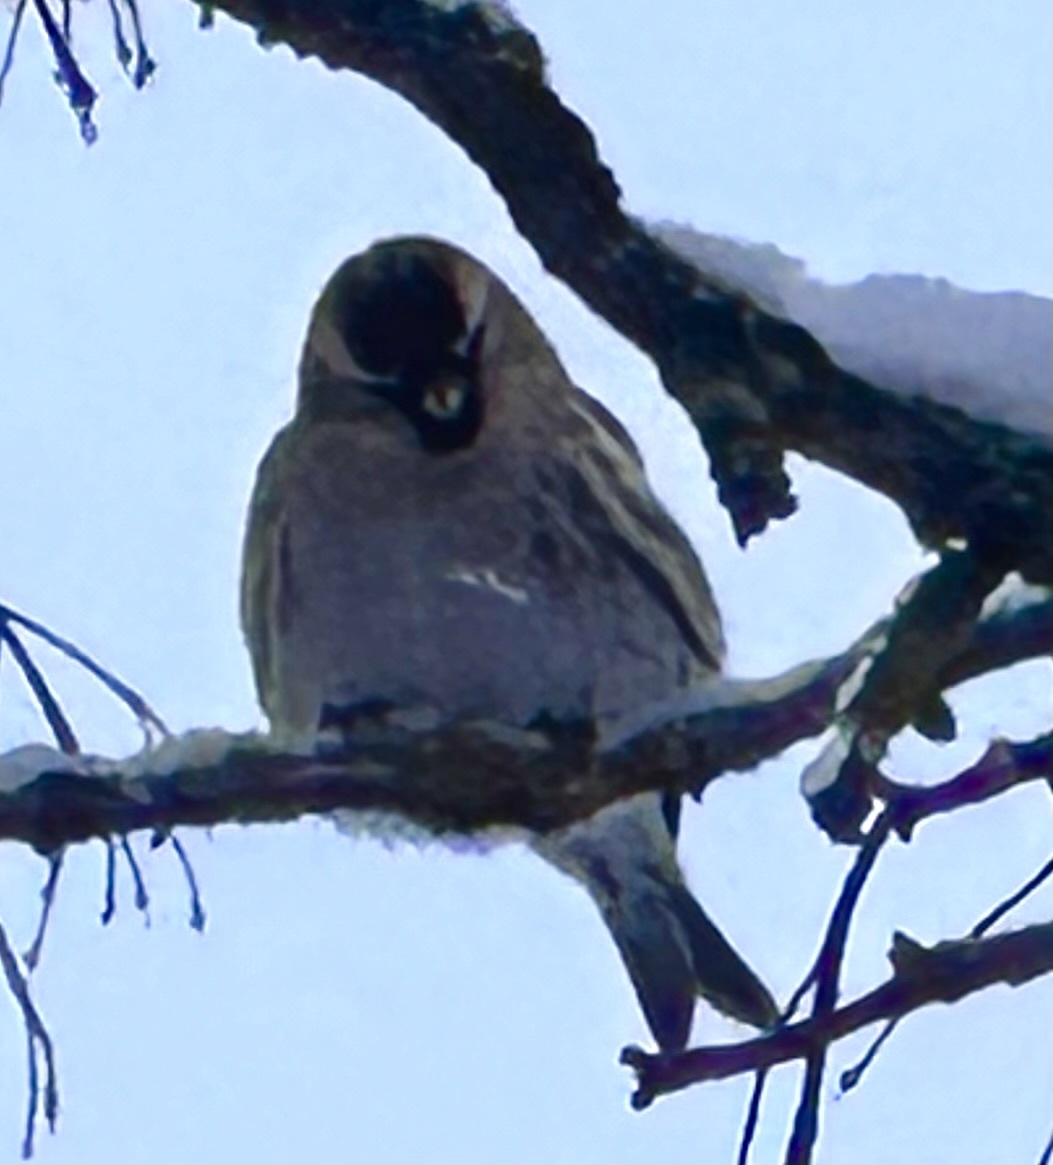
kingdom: Animalia
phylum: Chordata
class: Aves
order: Passeriformes
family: Fringillidae
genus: Acanthis
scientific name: Acanthis flammea
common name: Common redpoll
